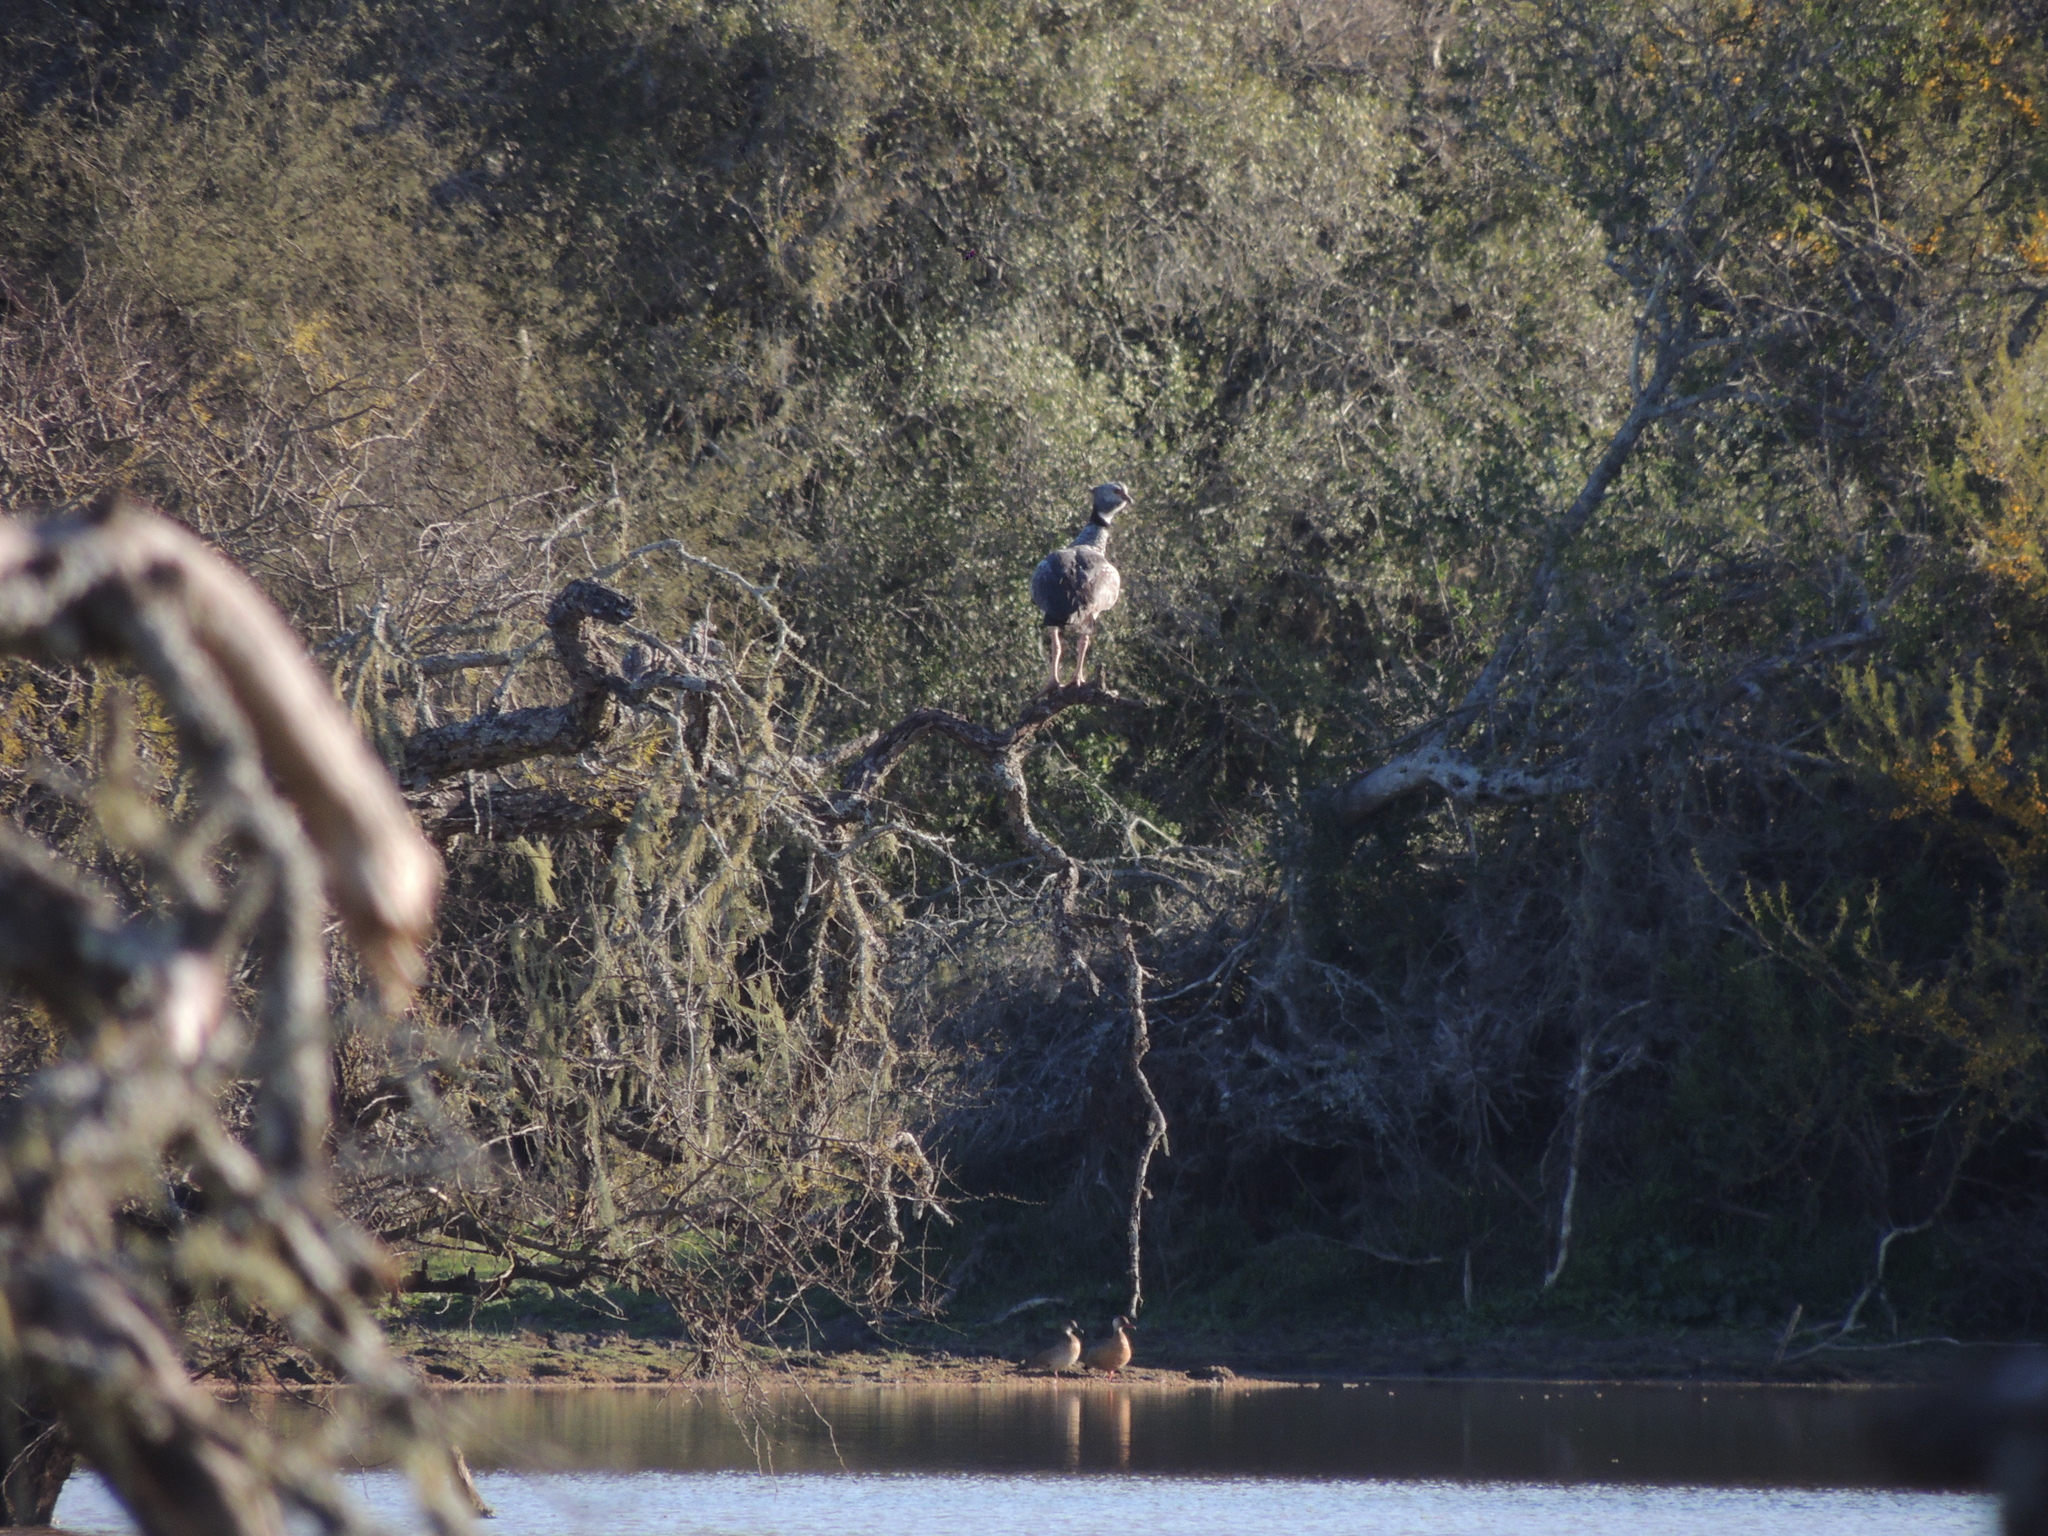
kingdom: Animalia
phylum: Chordata
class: Aves
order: Anseriformes
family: Anhimidae
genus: Chauna
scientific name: Chauna torquata
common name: Southern screamer
